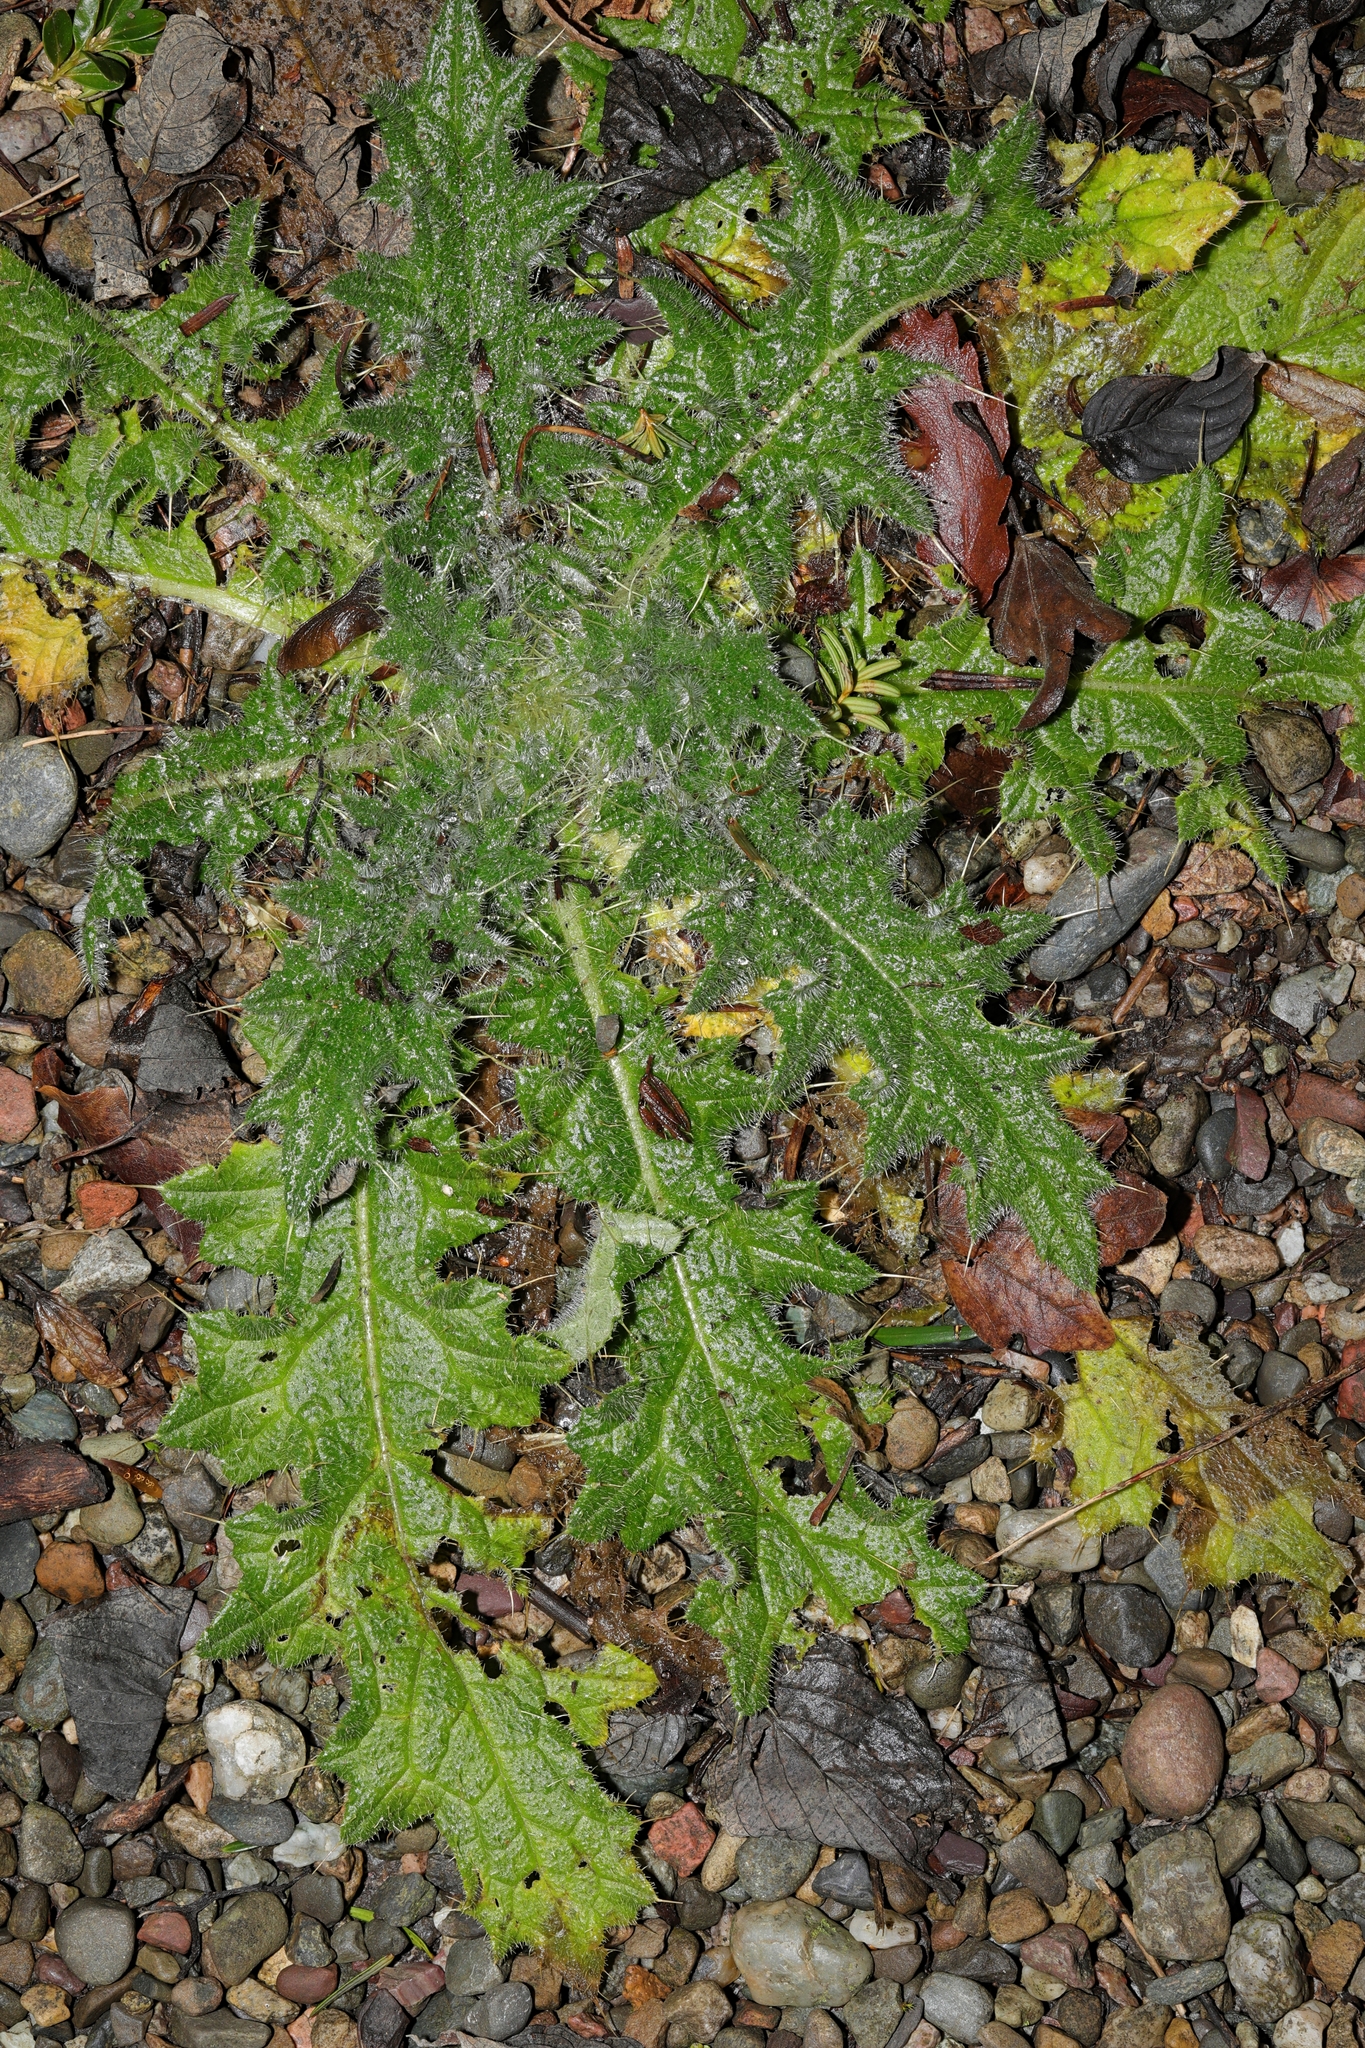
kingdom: Plantae
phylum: Tracheophyta
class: Magnoliopsida
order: Asterales
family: Asteraceae
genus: Cirsium
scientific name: Cirsium vulgare
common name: Bull thistle
